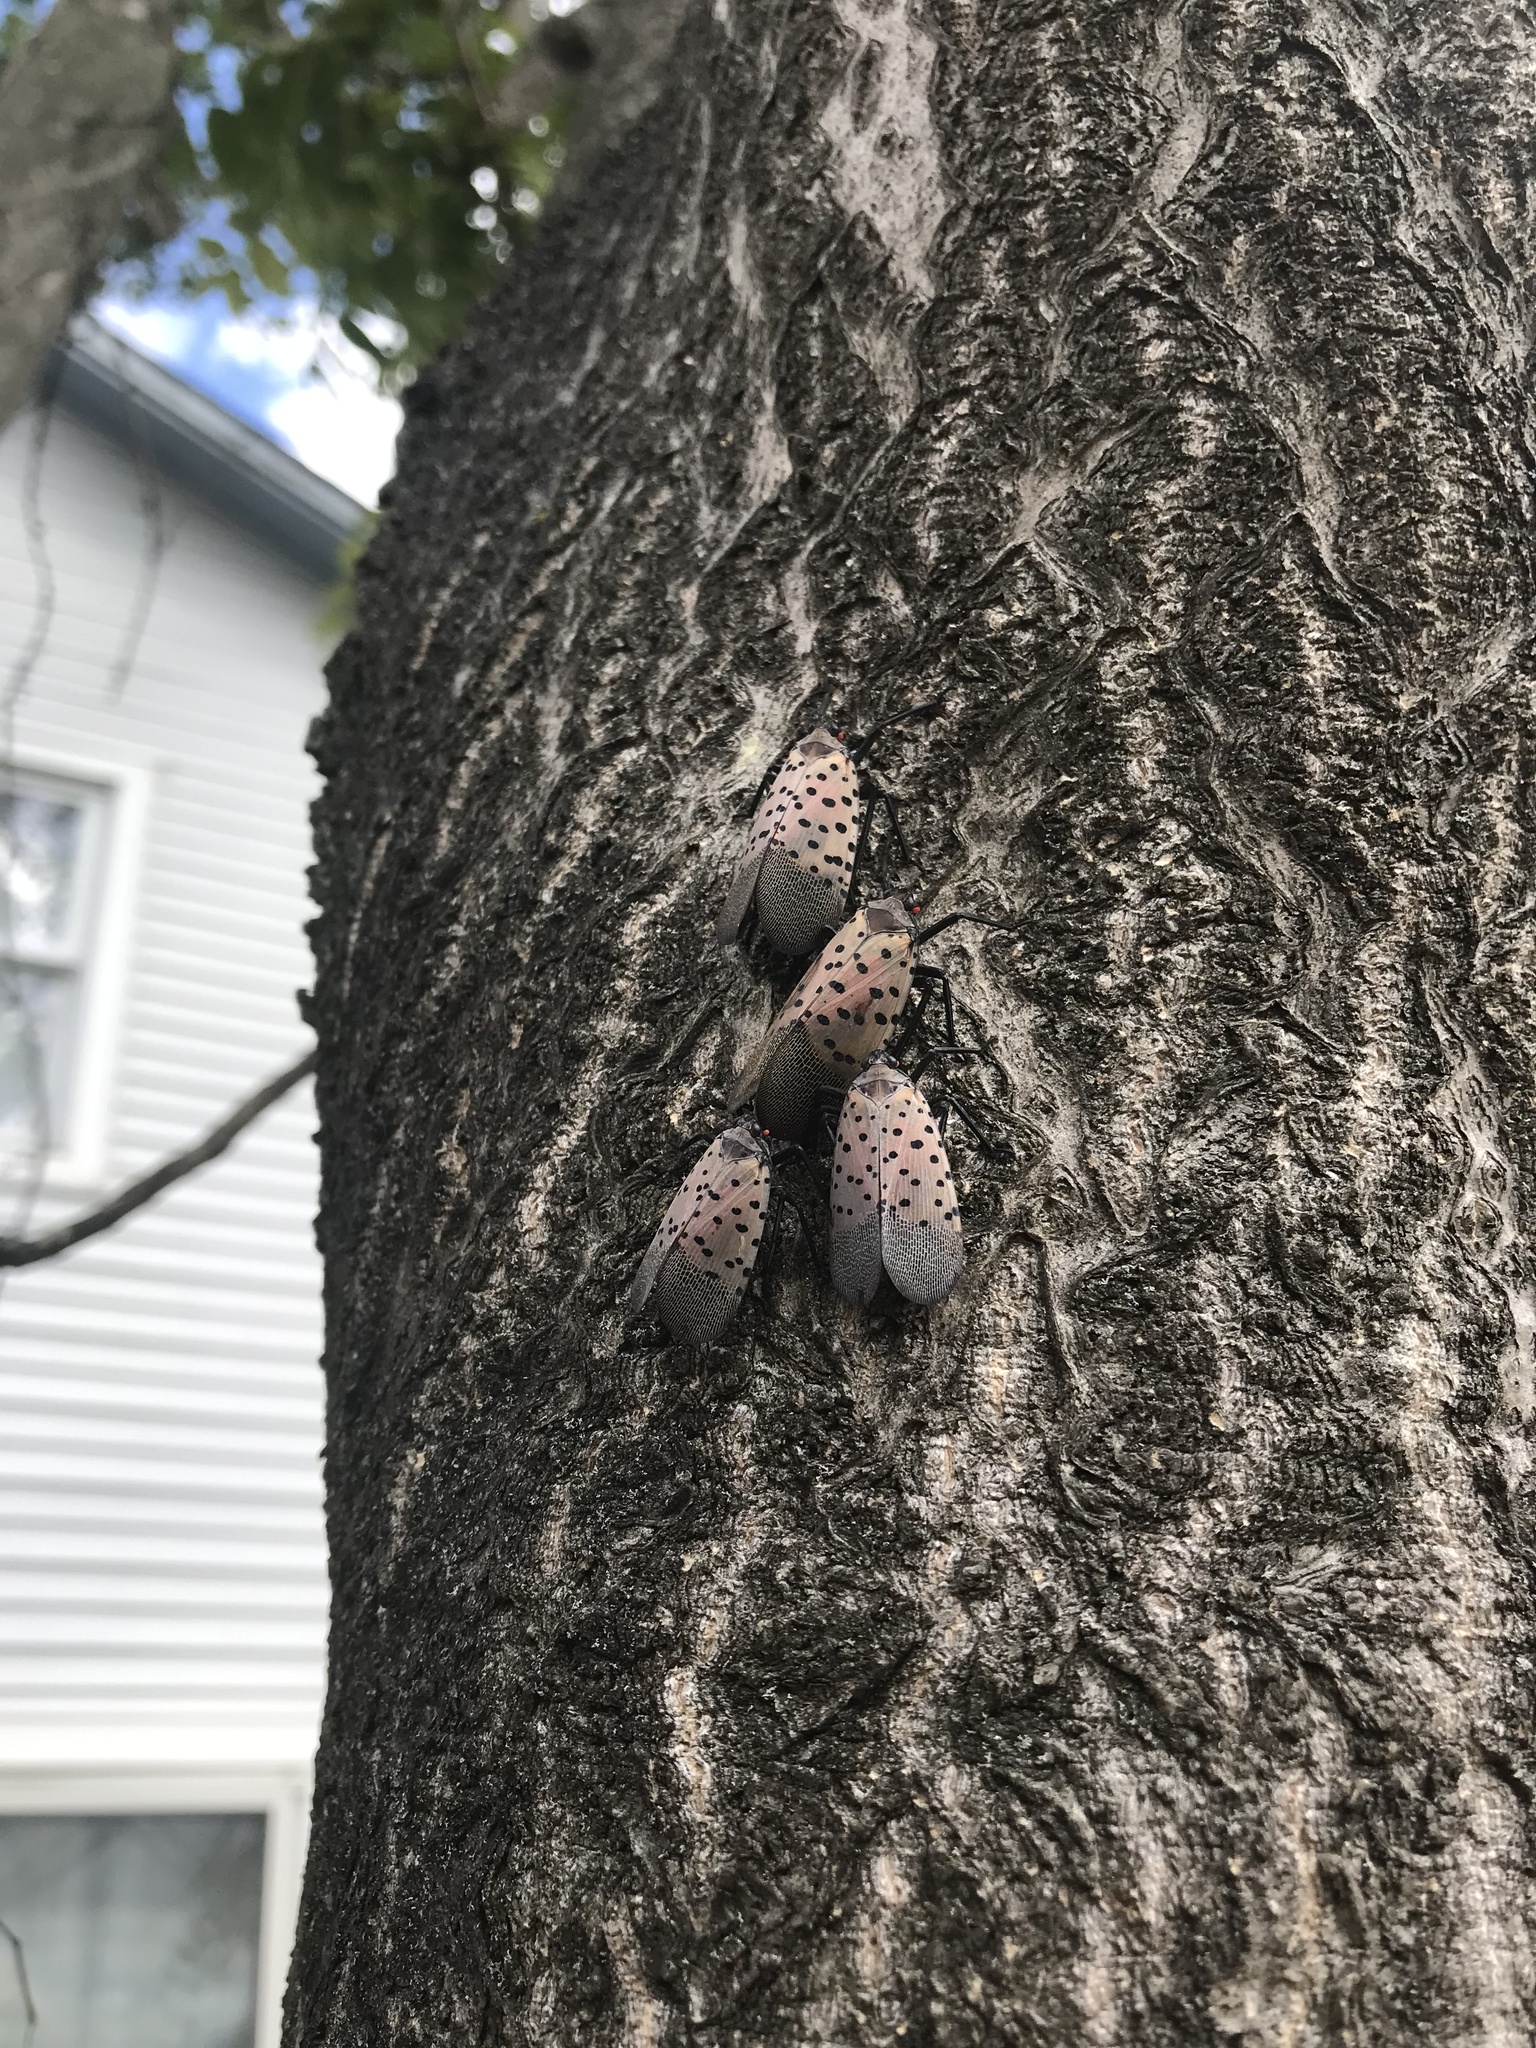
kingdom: Animalia
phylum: Arthropoda
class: Insecta
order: Hemiptera
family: Fulgoridae
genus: Lycorma
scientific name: Lycorma delicatula
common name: Spotted lanternfly
